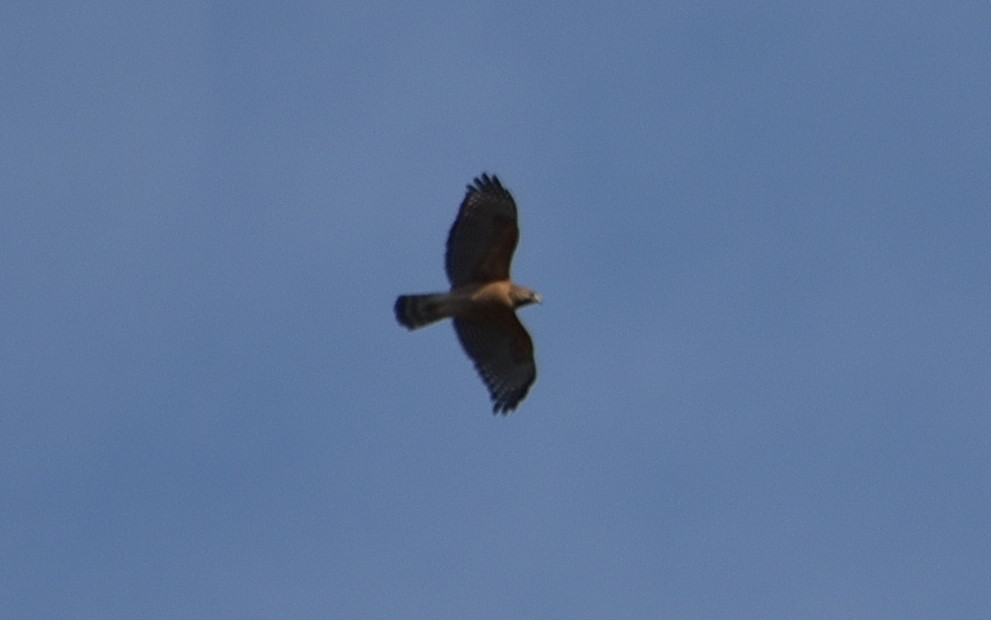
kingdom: Animalia
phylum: Chordata
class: Aves
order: Accipitriformes
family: Accipitridae
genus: Buteo
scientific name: Buteo lineatus
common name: Red-shouldered hawk
